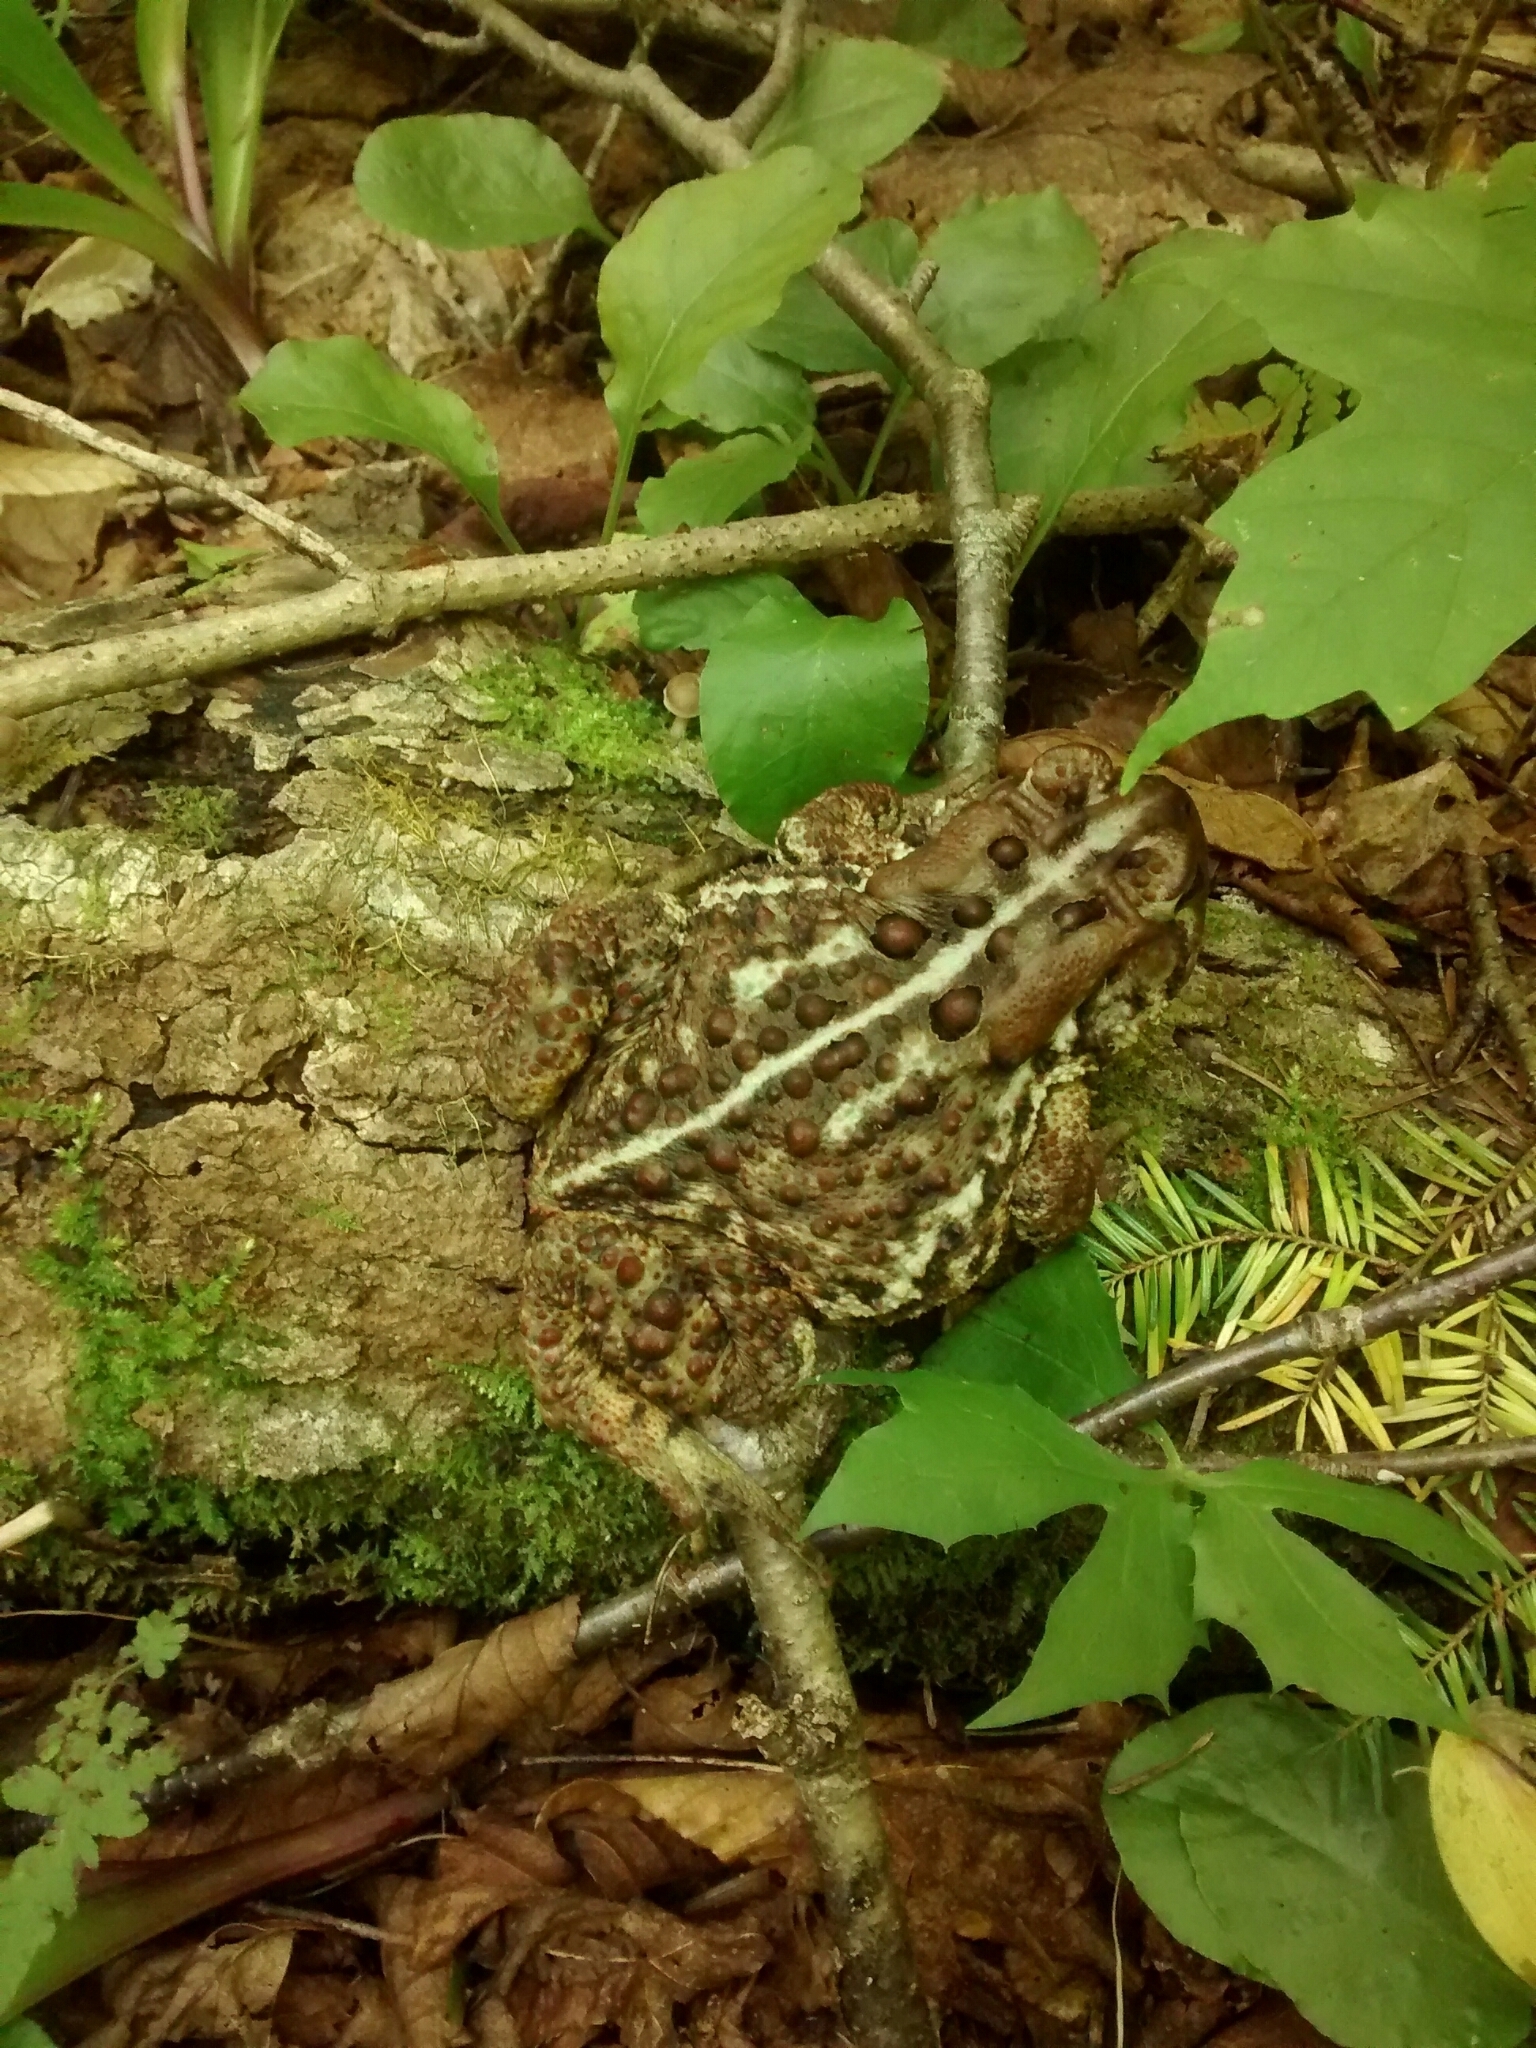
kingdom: Animalia
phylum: Chordata
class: Amphibia
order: Anura
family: Bufonidae
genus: Anaxyrus
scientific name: Anaxyrus americanus
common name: American toad
